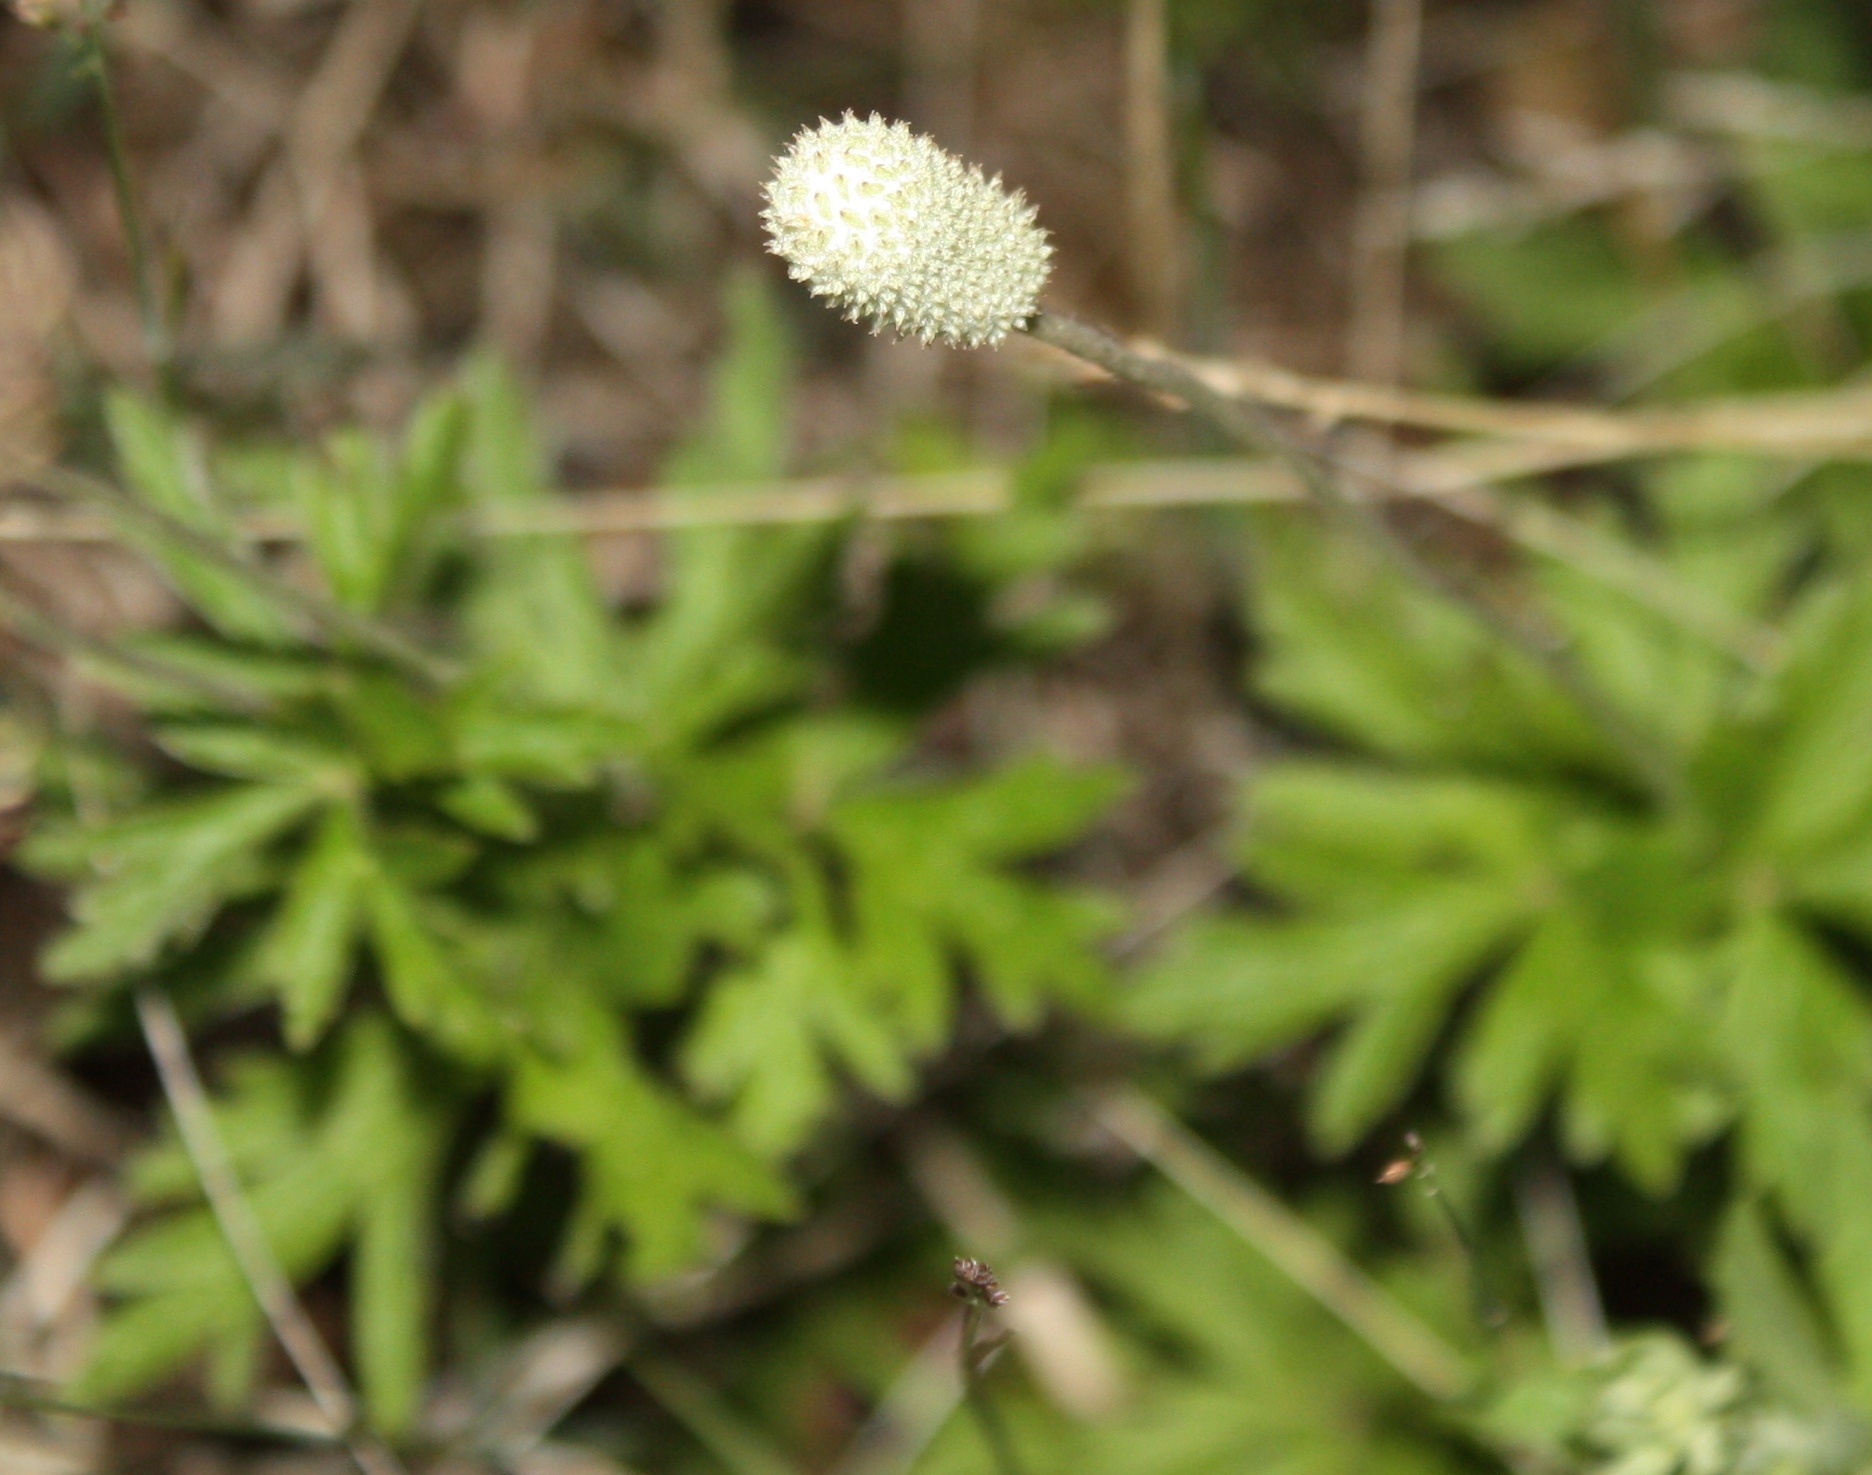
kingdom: Plantae
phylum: Tracheophyta
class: Magnoliopsida
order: Ranunculales
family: Ranunculaceae
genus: Anemone
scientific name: Anemone cylindrica
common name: Candle anemone
